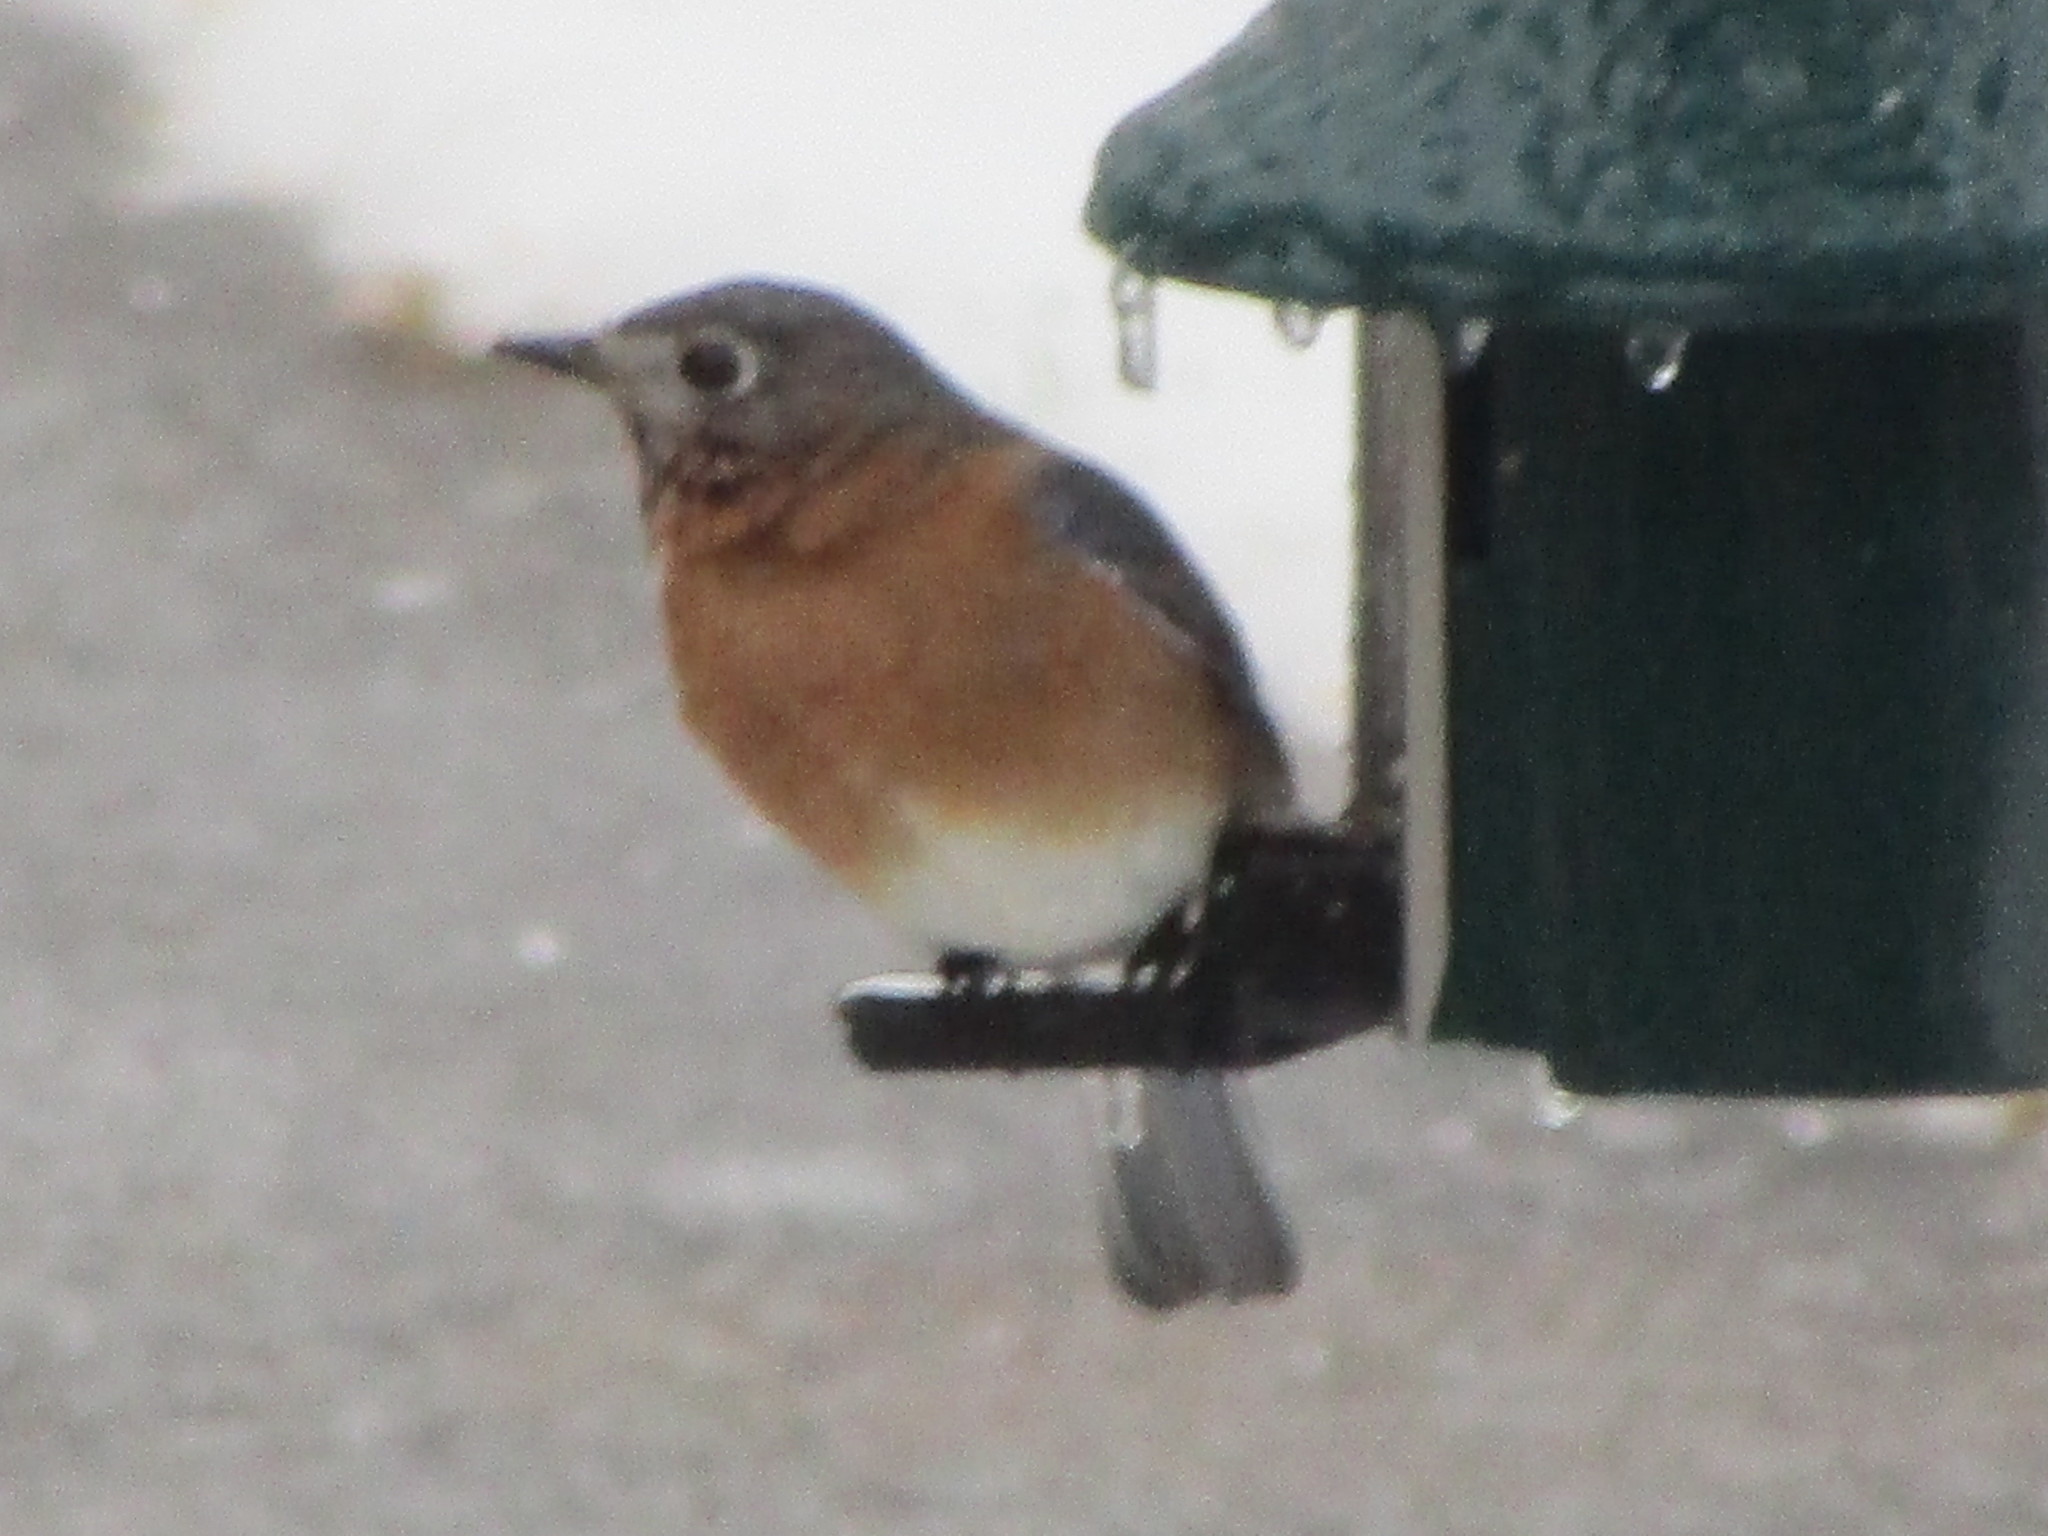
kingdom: Animalia
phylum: Chordata
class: Aves
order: Passeriformes
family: Turdidae
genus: Sialia
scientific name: Sialia sialis
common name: Eastern bluebird
